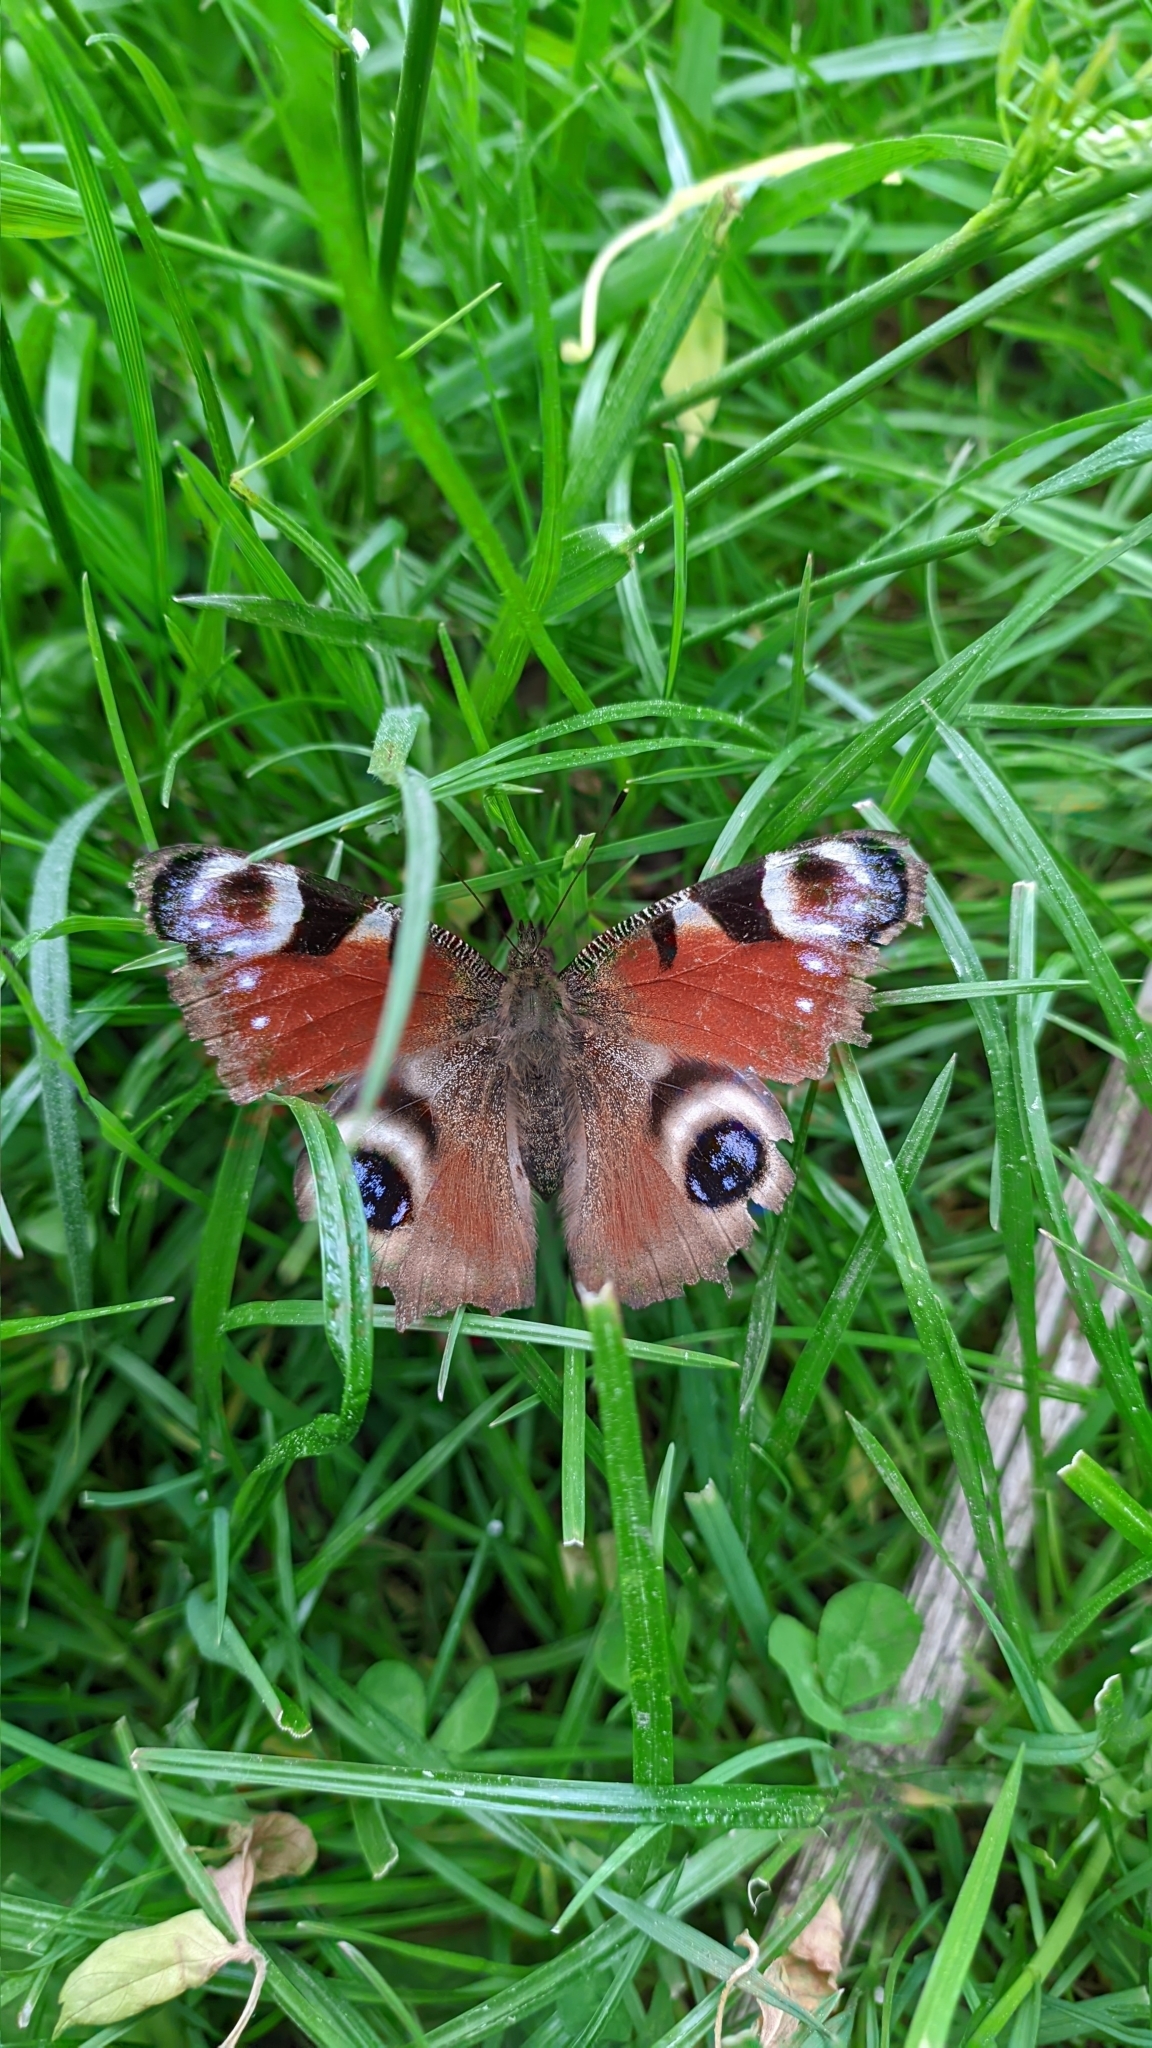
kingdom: Animalia
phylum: Arthropoda
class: Insecta
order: Lepidoptera
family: Nymphalidae
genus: Aglais
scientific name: Aglais io
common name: Peacock
